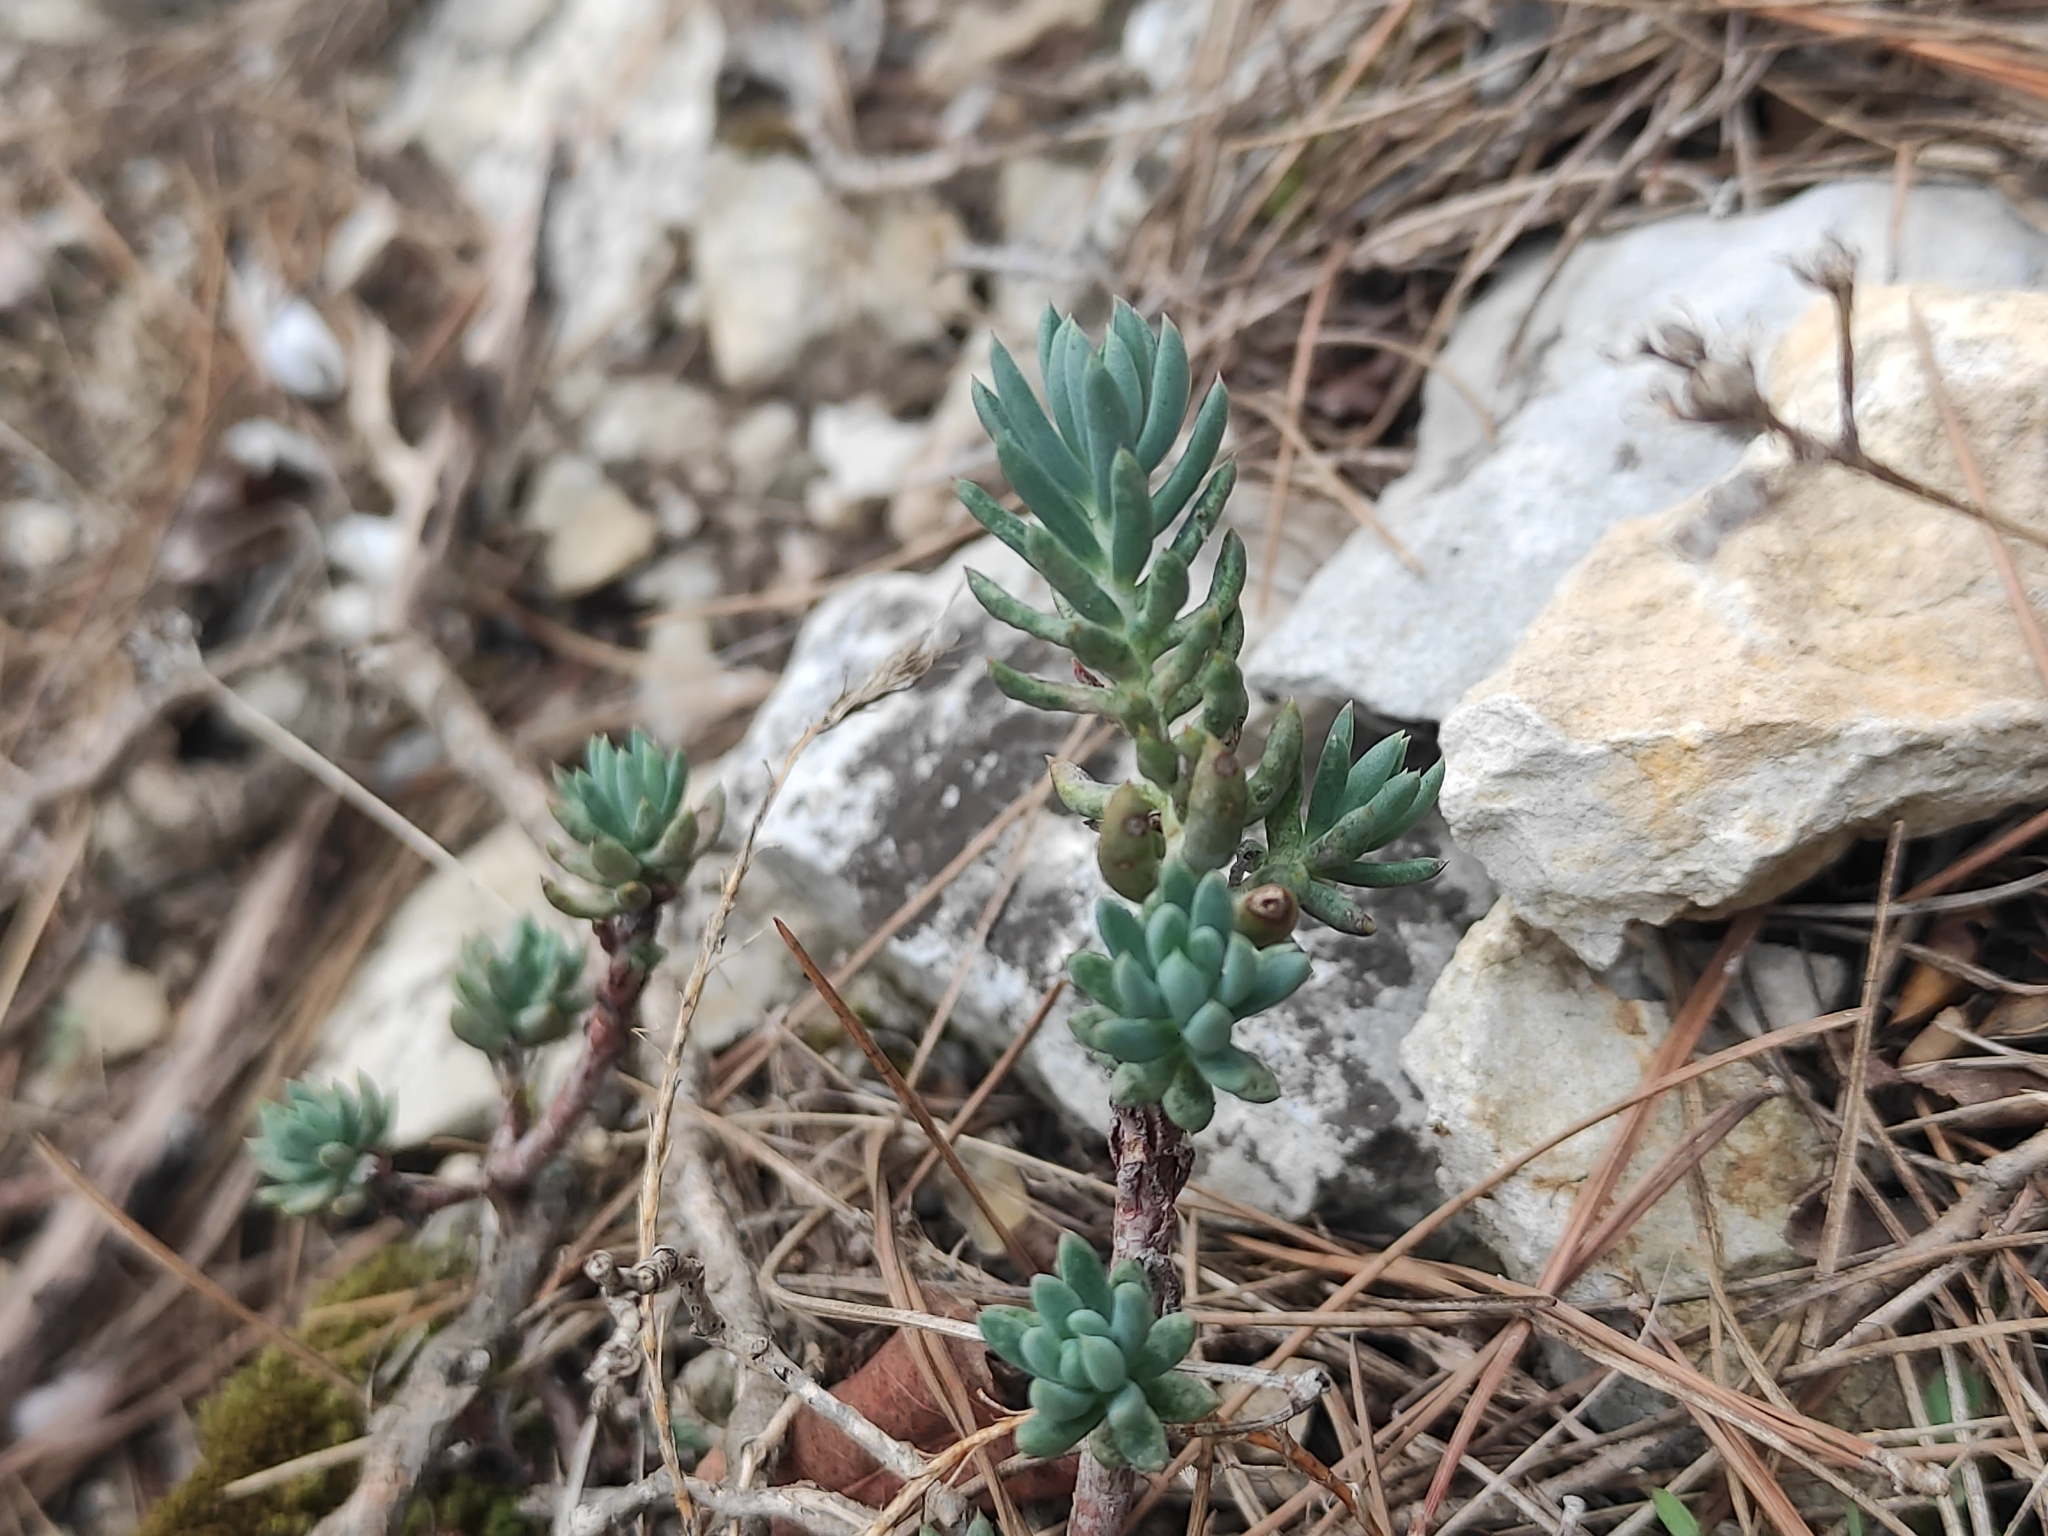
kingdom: Plantae
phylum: Tracheophyta
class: Magnoliopsida
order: Saxifragales
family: Crassulaceae
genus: Petrosedum
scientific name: Petrosedum sediforme
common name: Pale stonecrop
